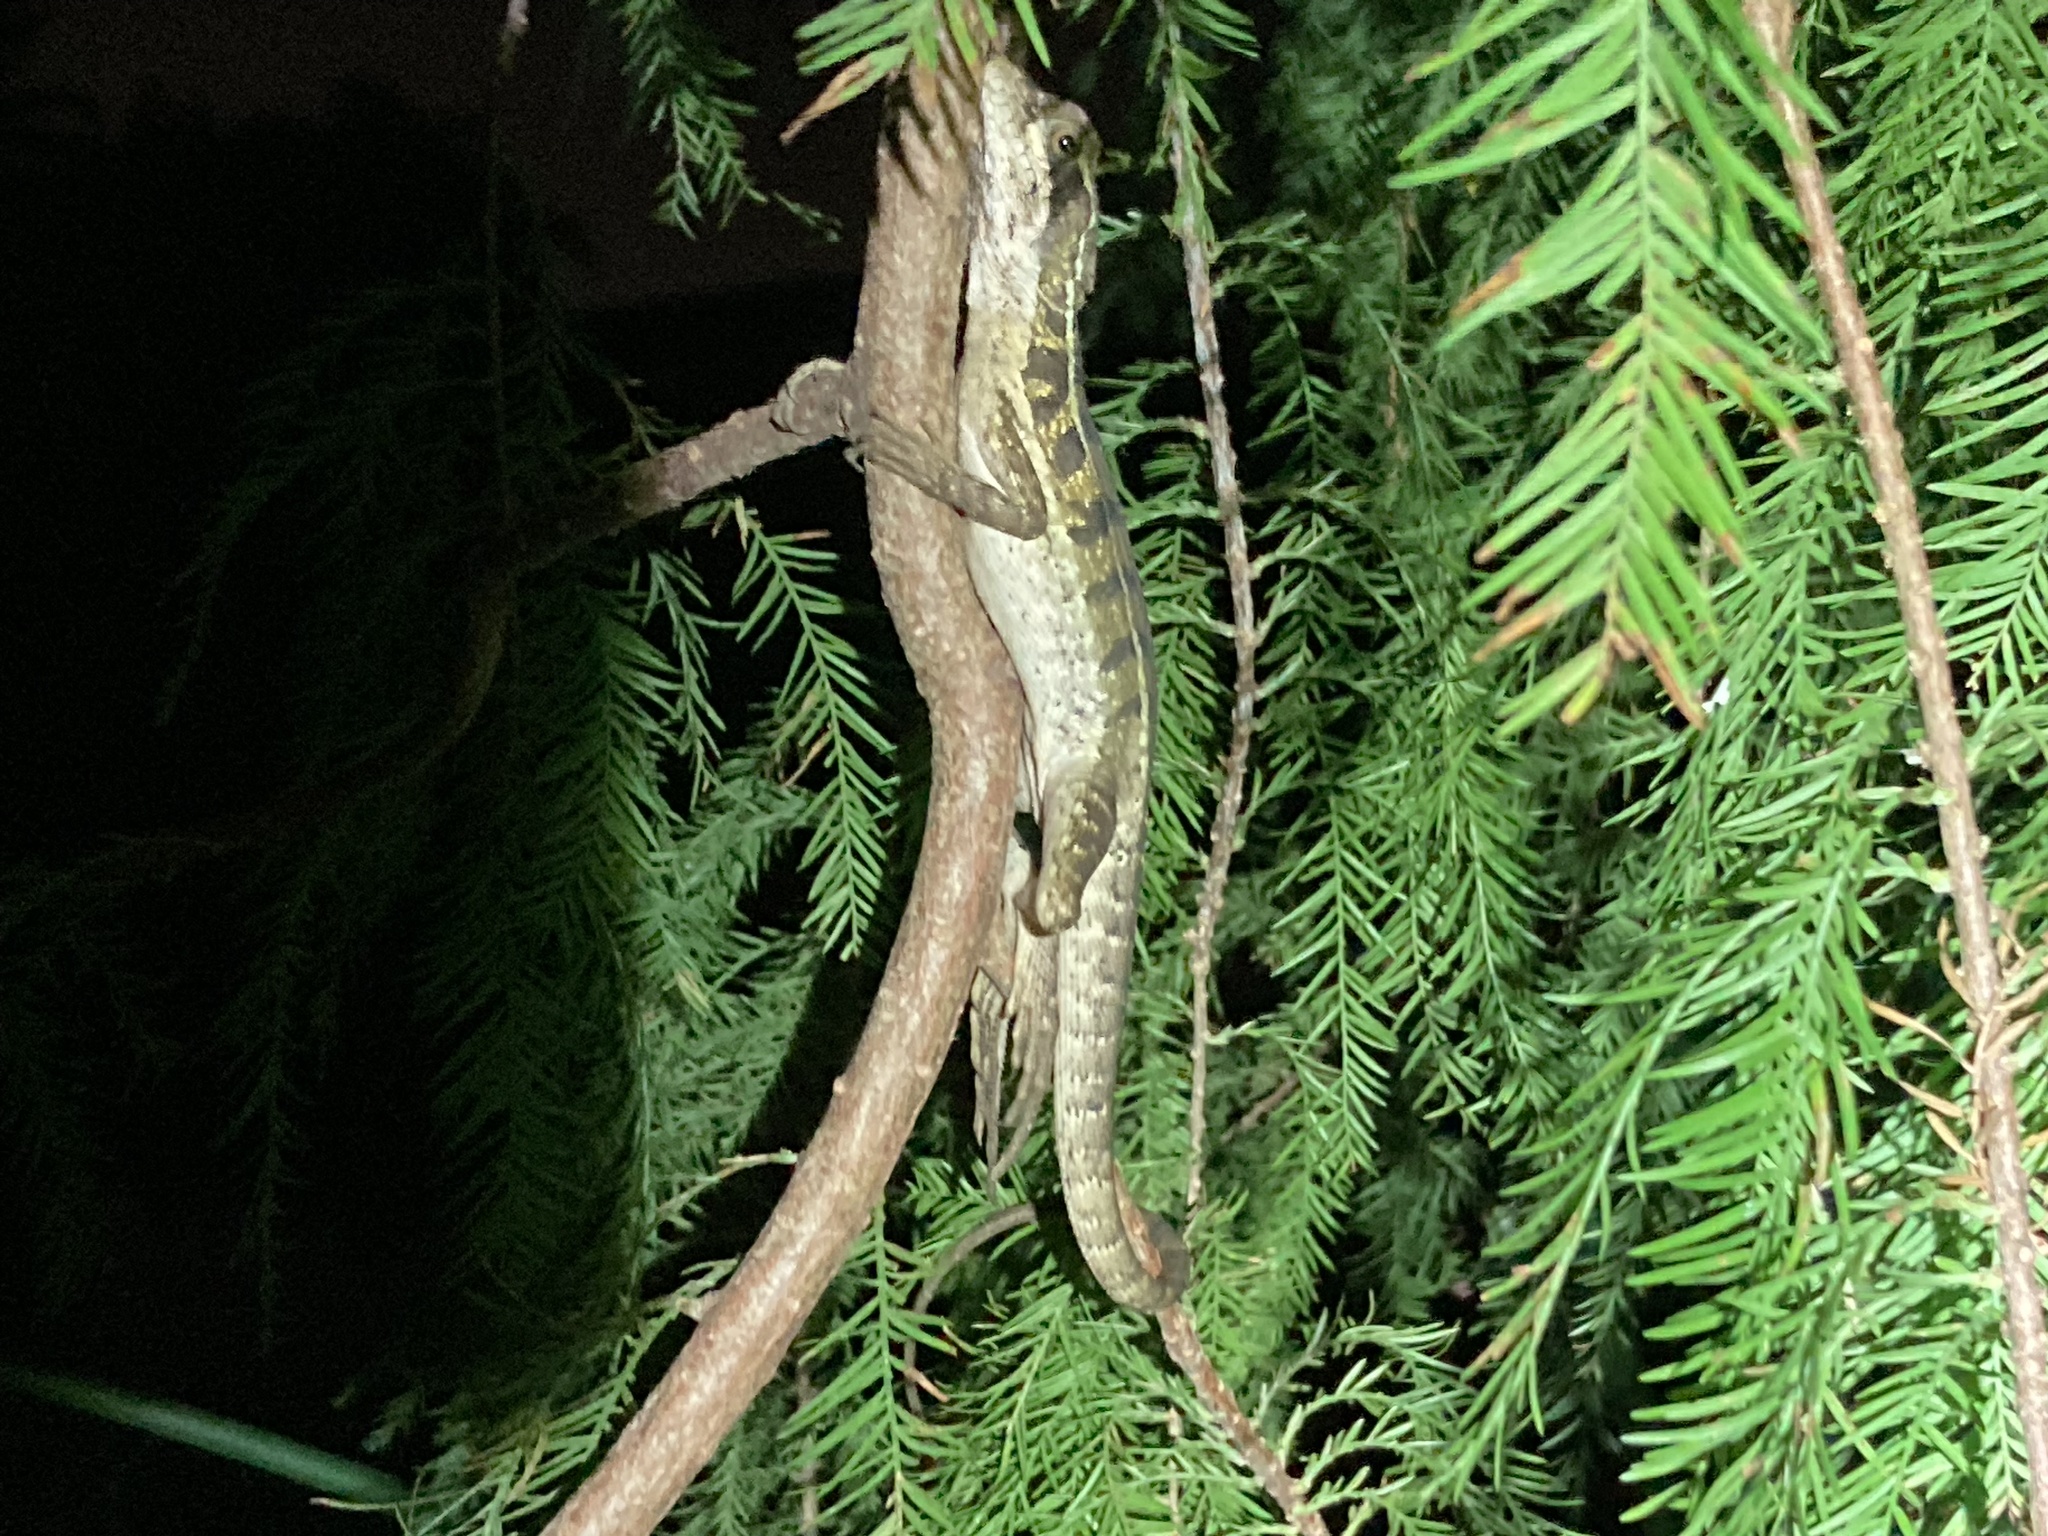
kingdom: Animalia
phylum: Chordata
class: Squamata
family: Corytophanidae
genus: Basiliscus
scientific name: Basiliscus vittatus
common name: Brown basilisk
